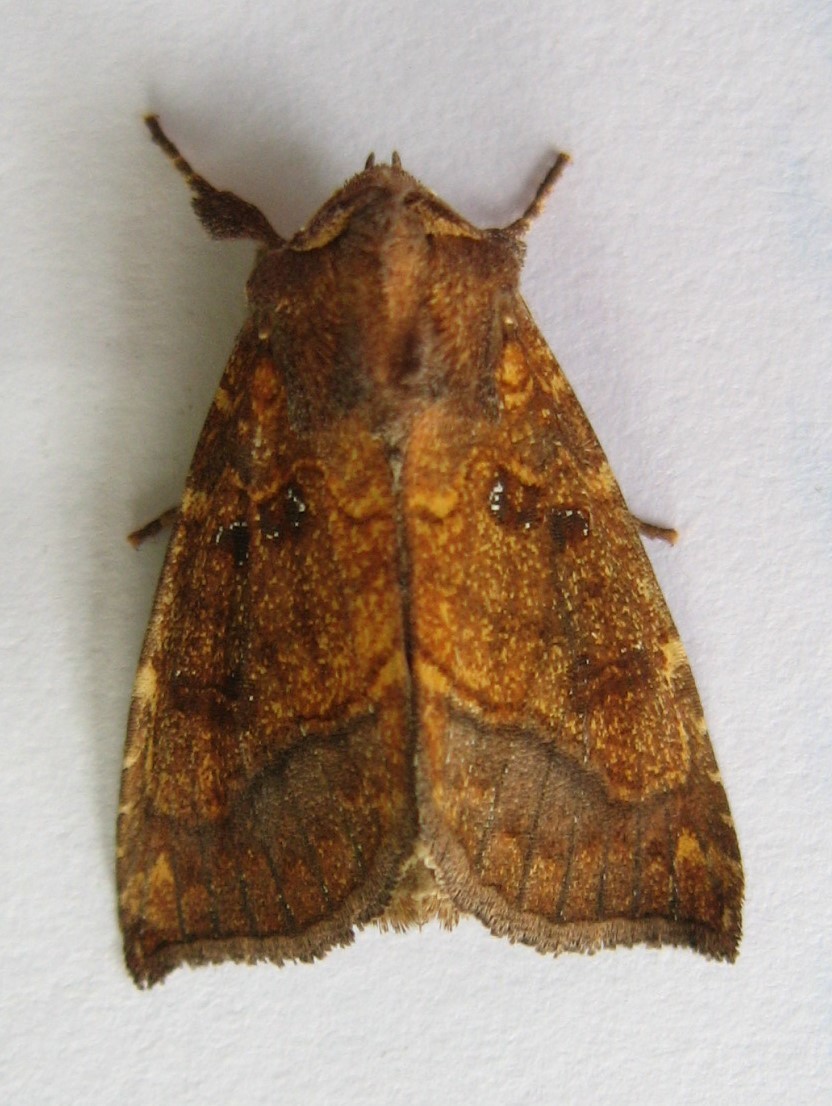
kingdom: Animalia
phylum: Arthropoda
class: Insecta
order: Lepidoptera
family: Noctuidae
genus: Papaipema
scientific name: Papaipema harrisii
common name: Heracleum stem borer moth
